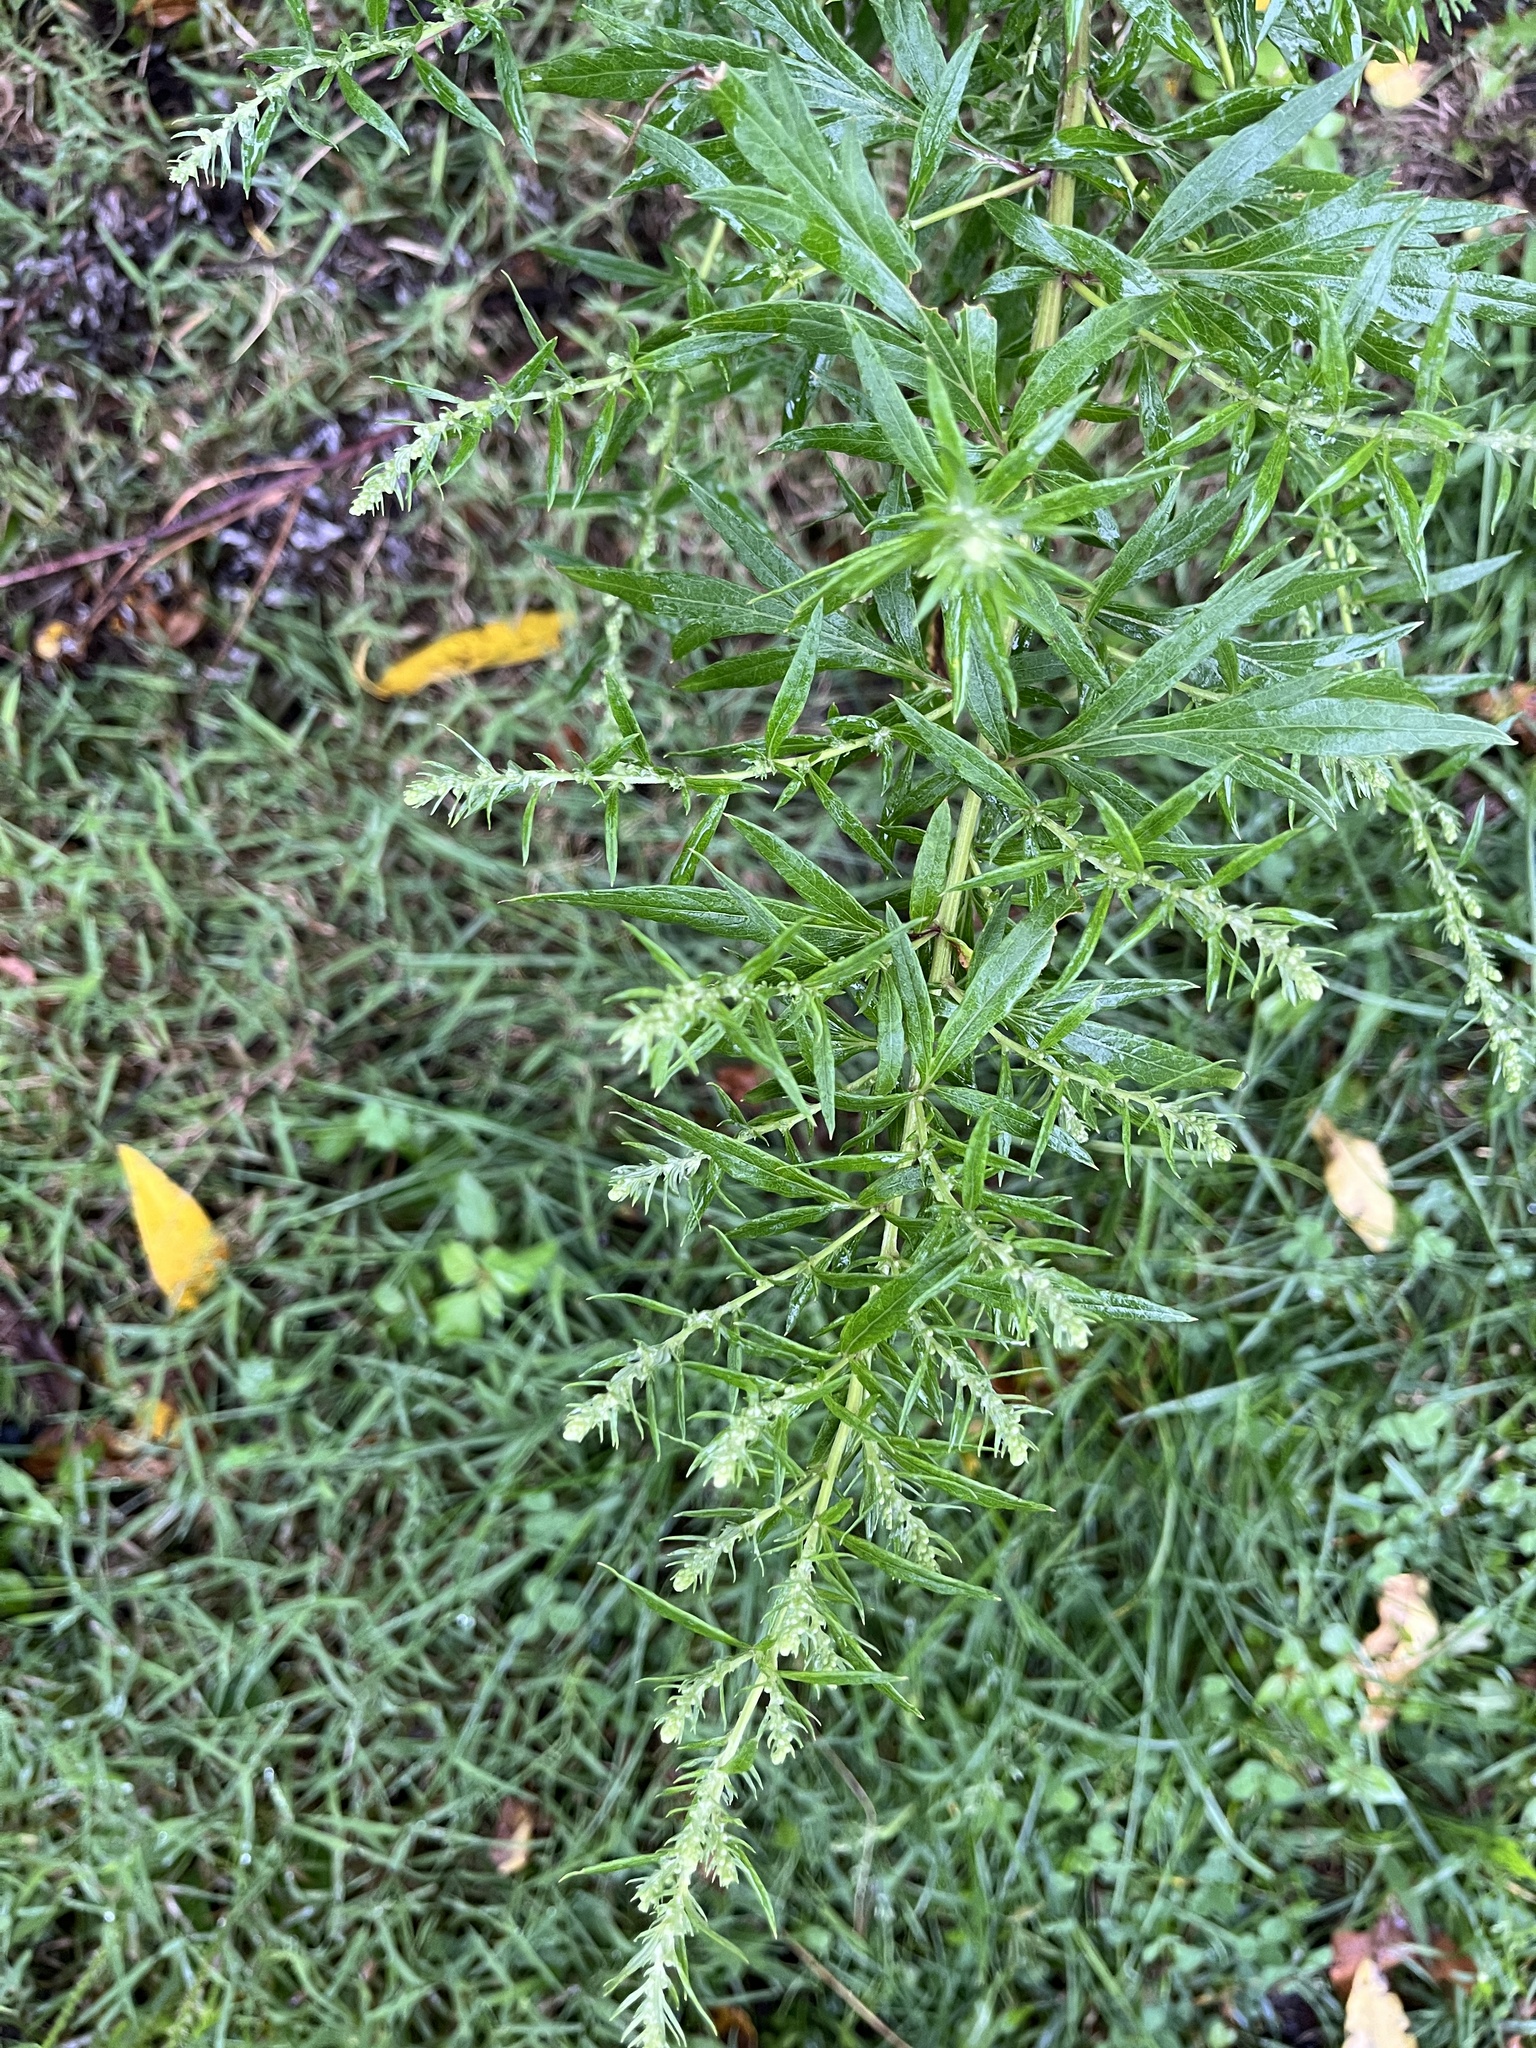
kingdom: Plantae
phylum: Tracheophyta
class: Magnoliopsida
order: Asterales
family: Asteraceae
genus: Artemisia
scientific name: Artemisia vulgaris
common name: Mugwort
